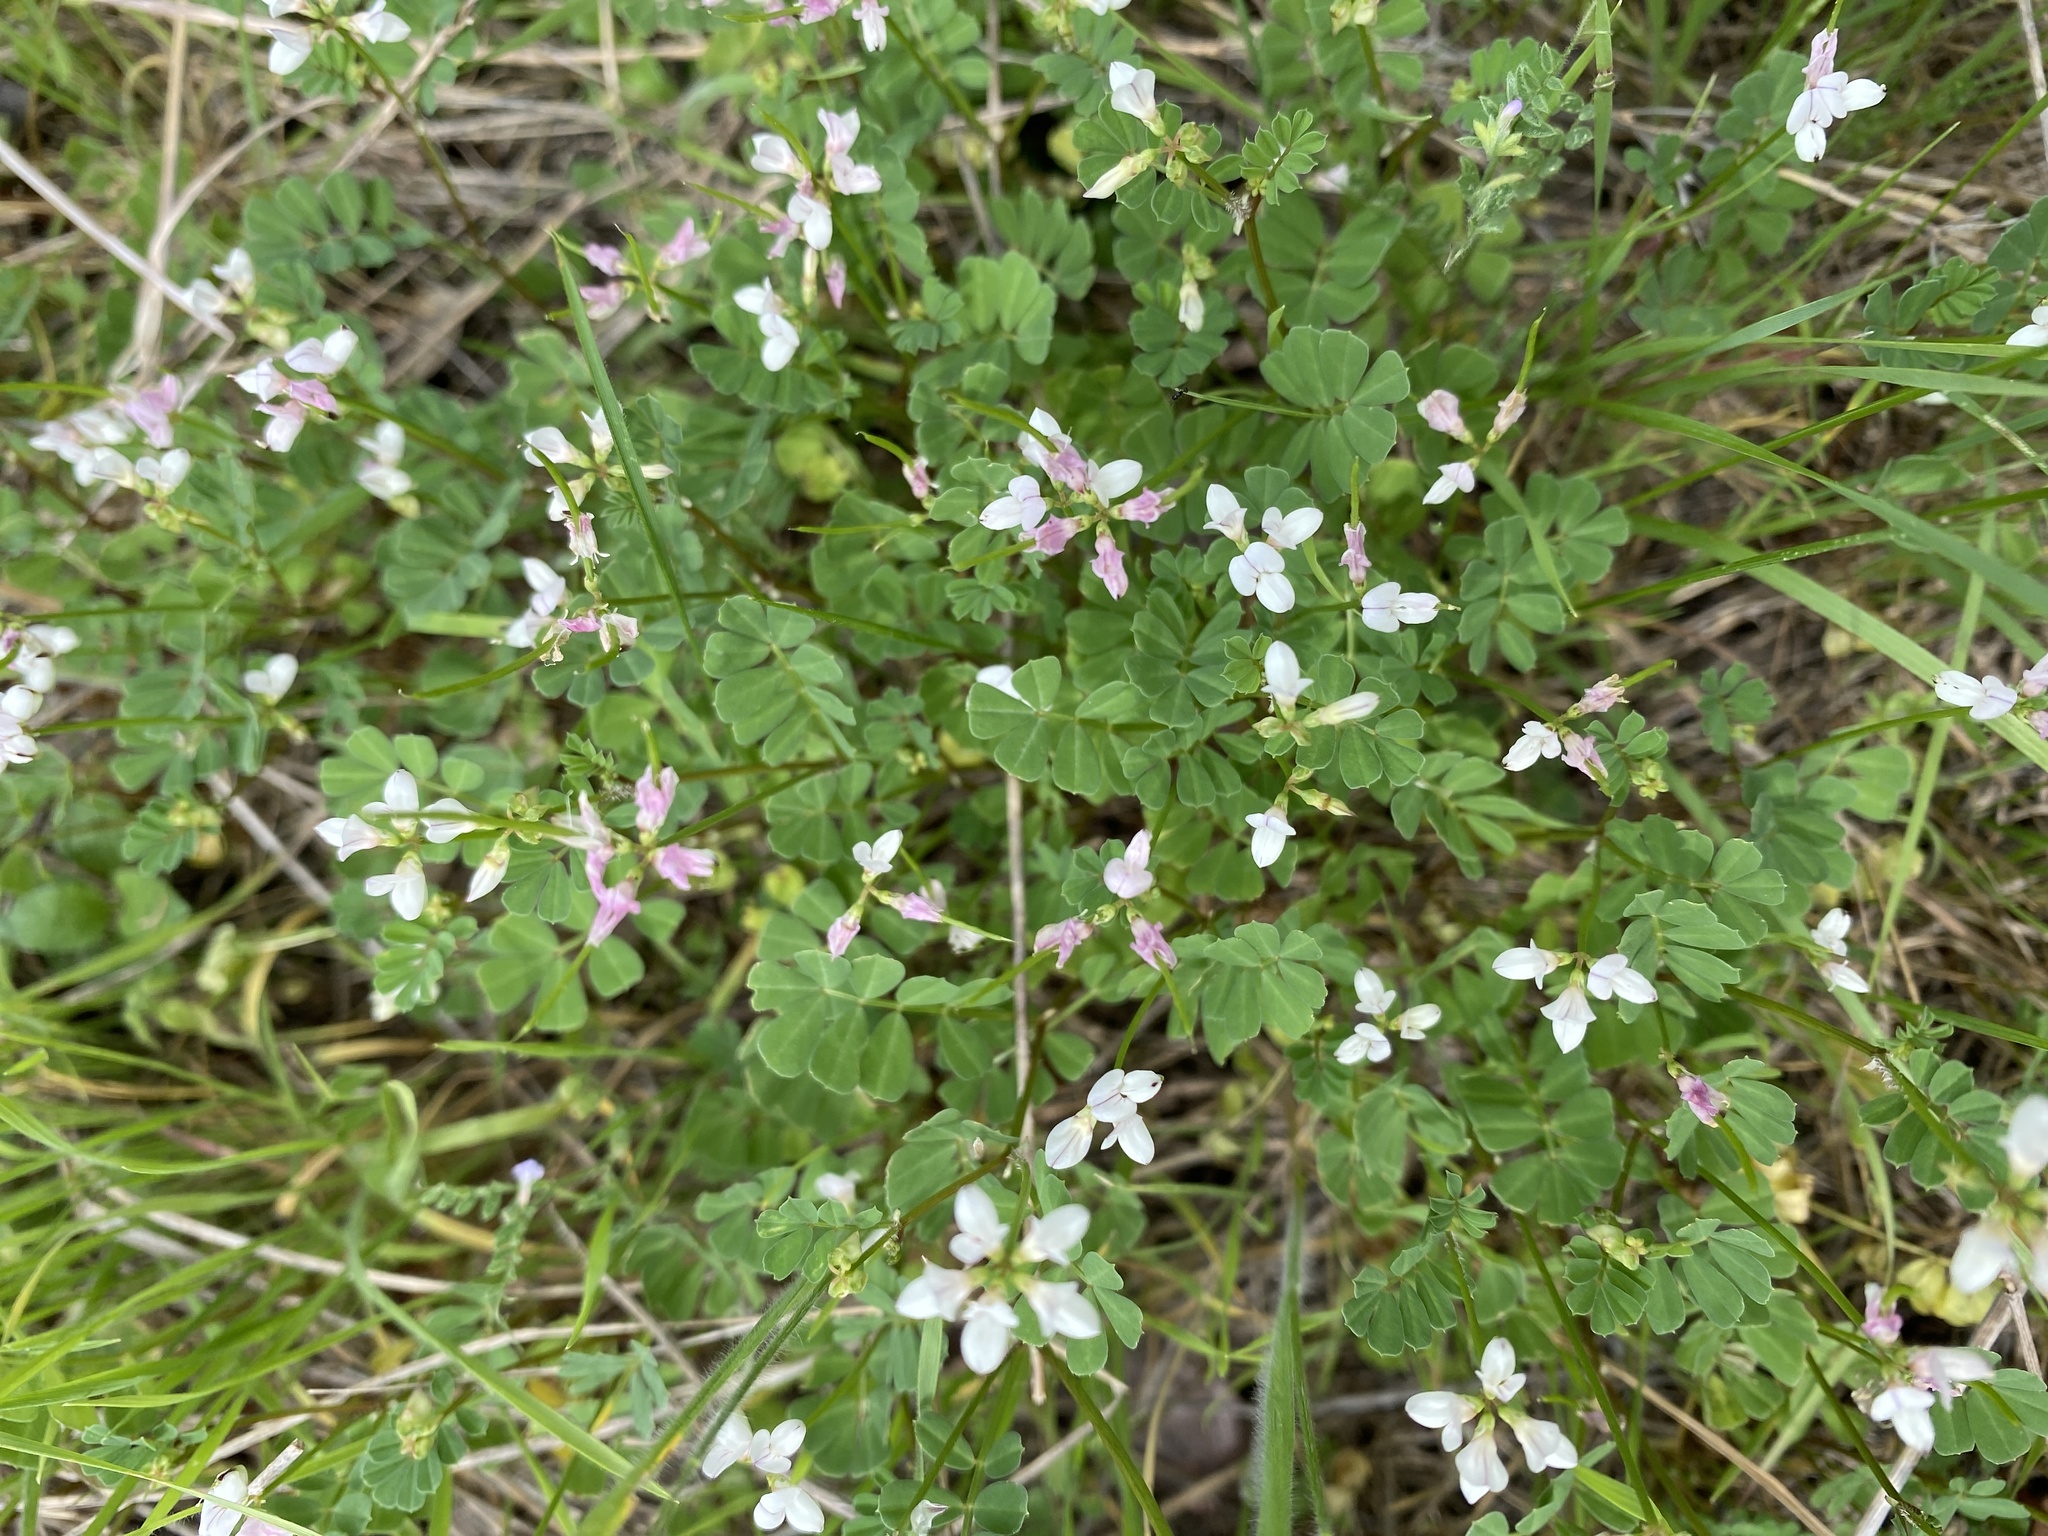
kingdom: Plantae
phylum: Tracheophyta
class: Magnoliopsida
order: Fabales
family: Fabaceae
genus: Coronilla
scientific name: Coronilla cretica
